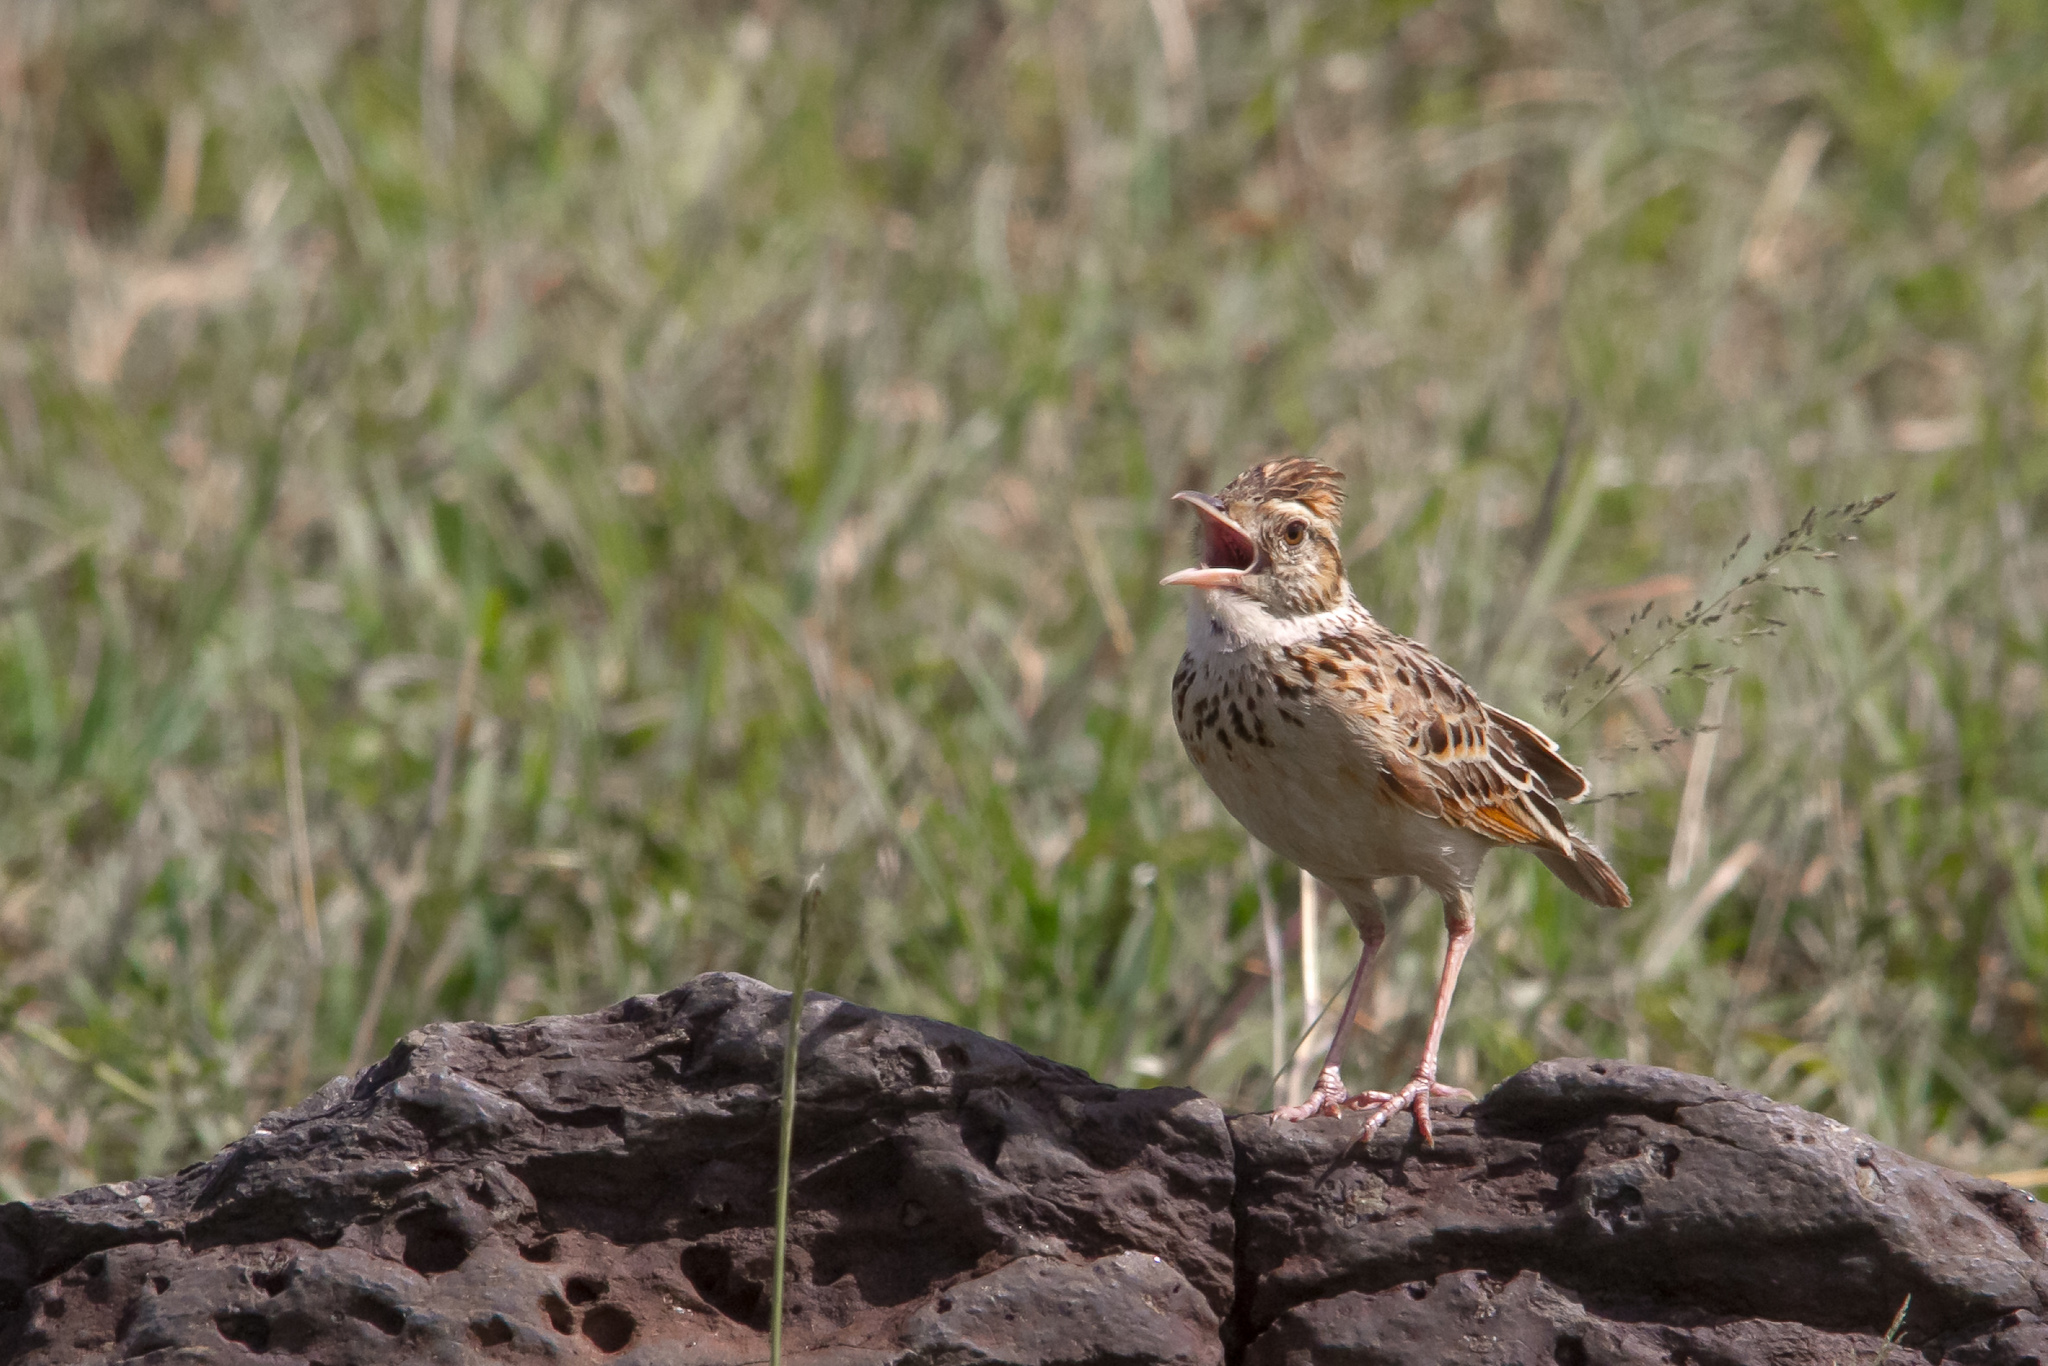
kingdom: Animalia
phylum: Chordata
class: Aves
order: Passeriformes
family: Alaudidae
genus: Mirafra
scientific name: Mirafra africana
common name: Rufous-naped lark
